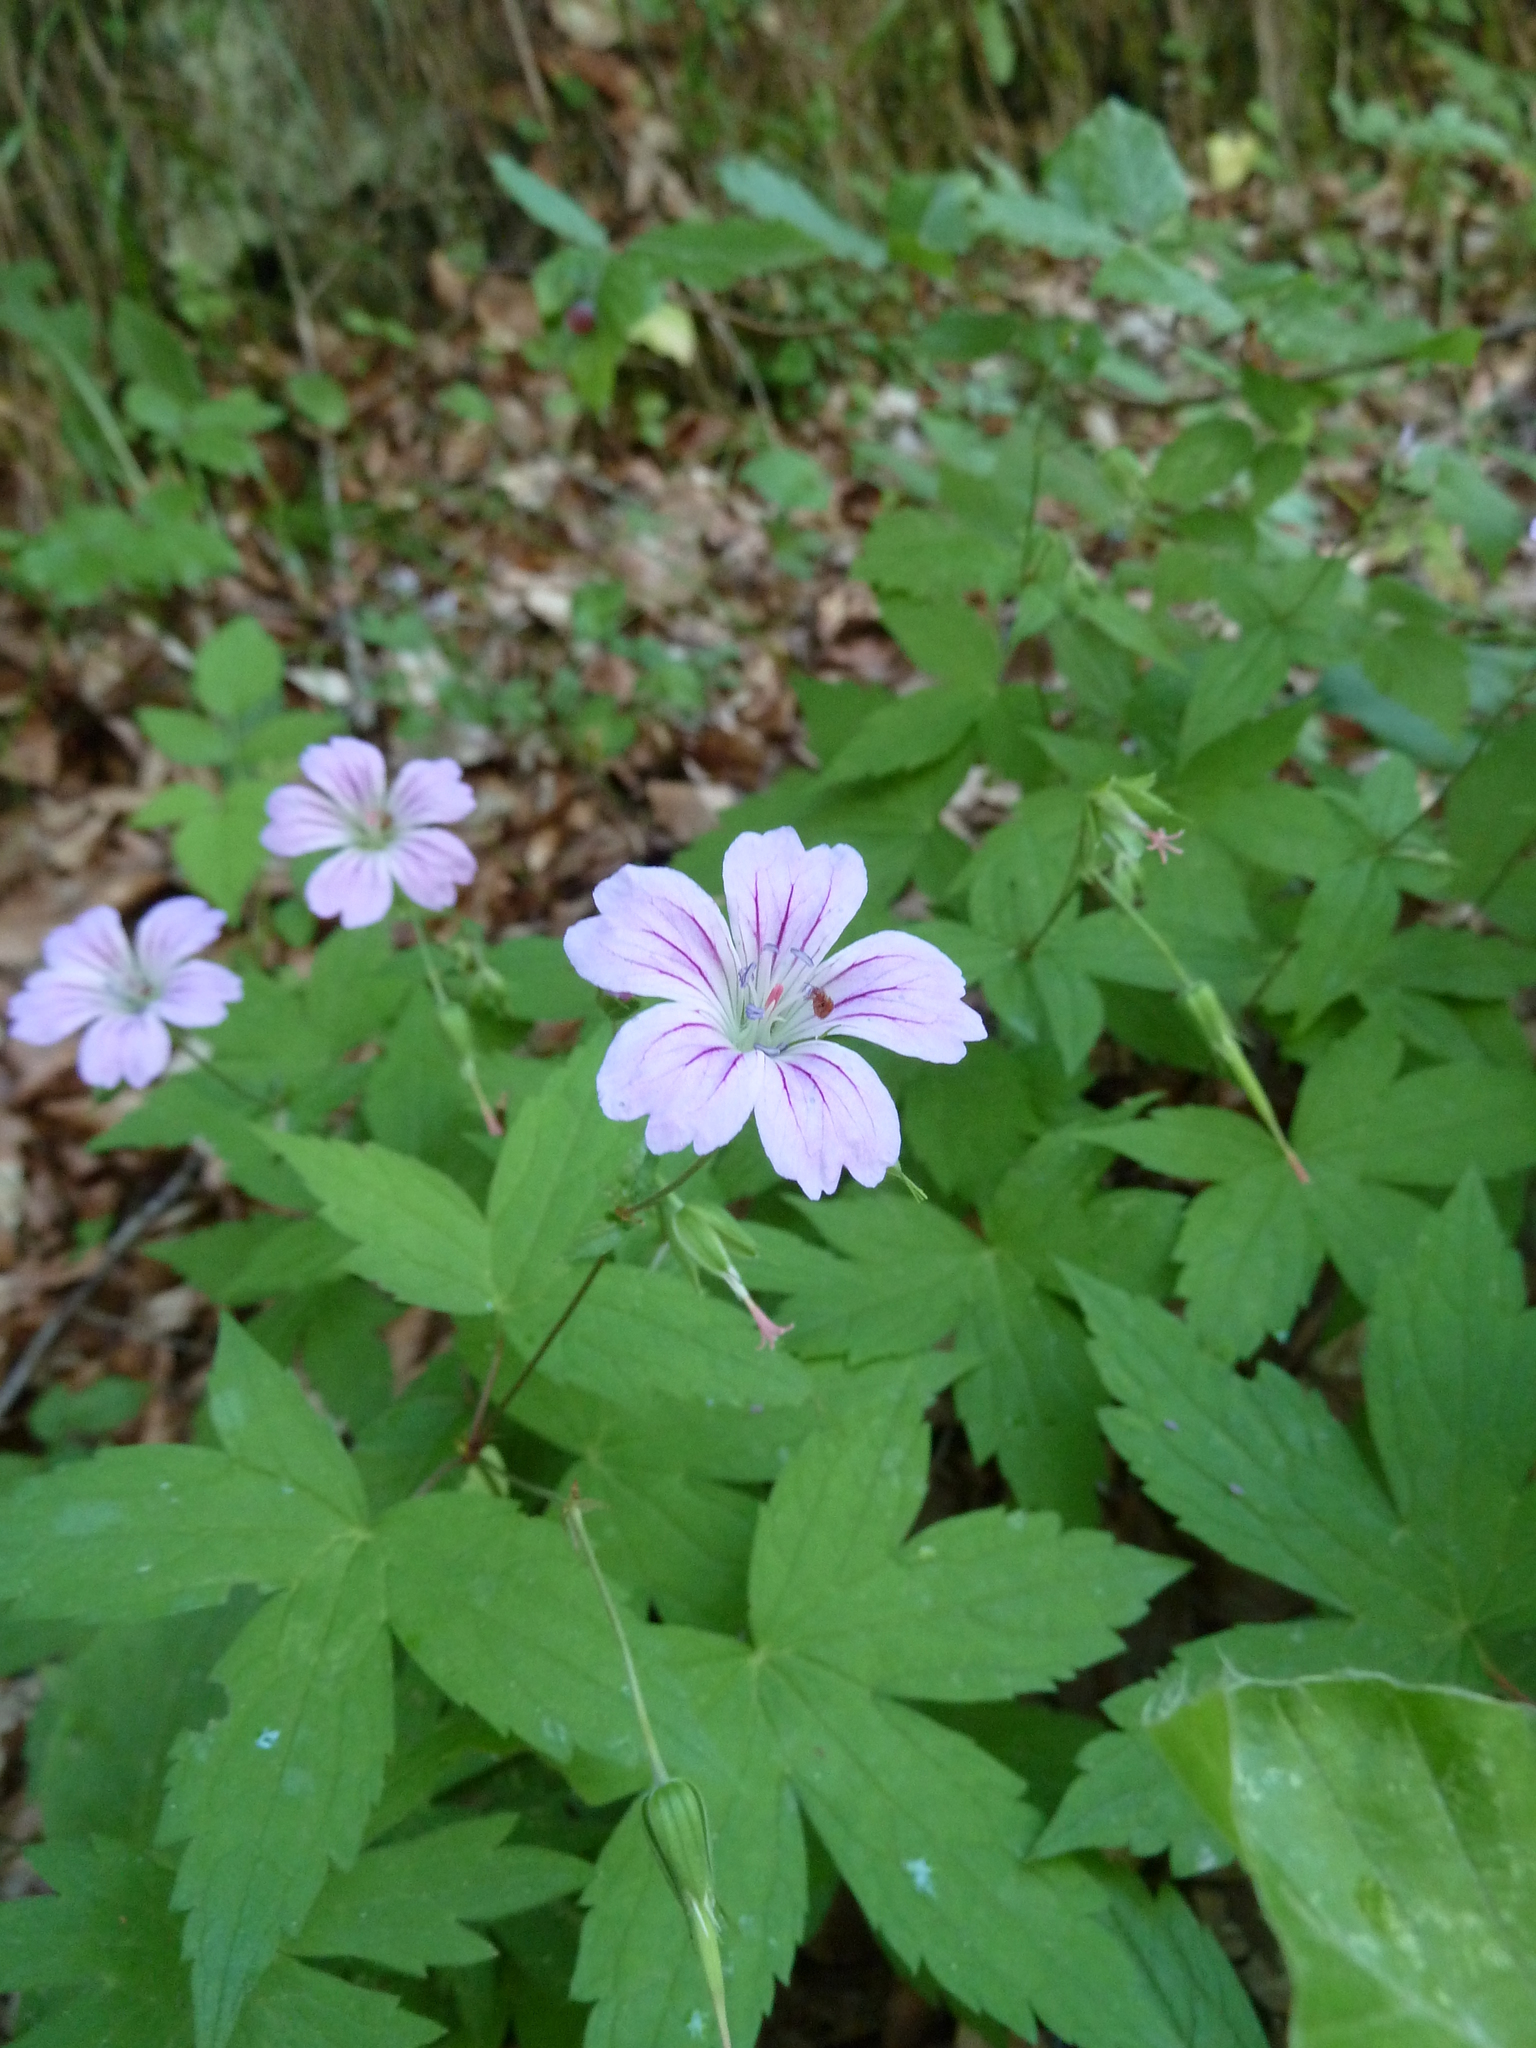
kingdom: Plantae
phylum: Tracheophyta
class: Magnoliopsida
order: Geraniales
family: Geraniaceae
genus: Geranium
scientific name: Geranium nodosum
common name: Knotted crane's-bill
